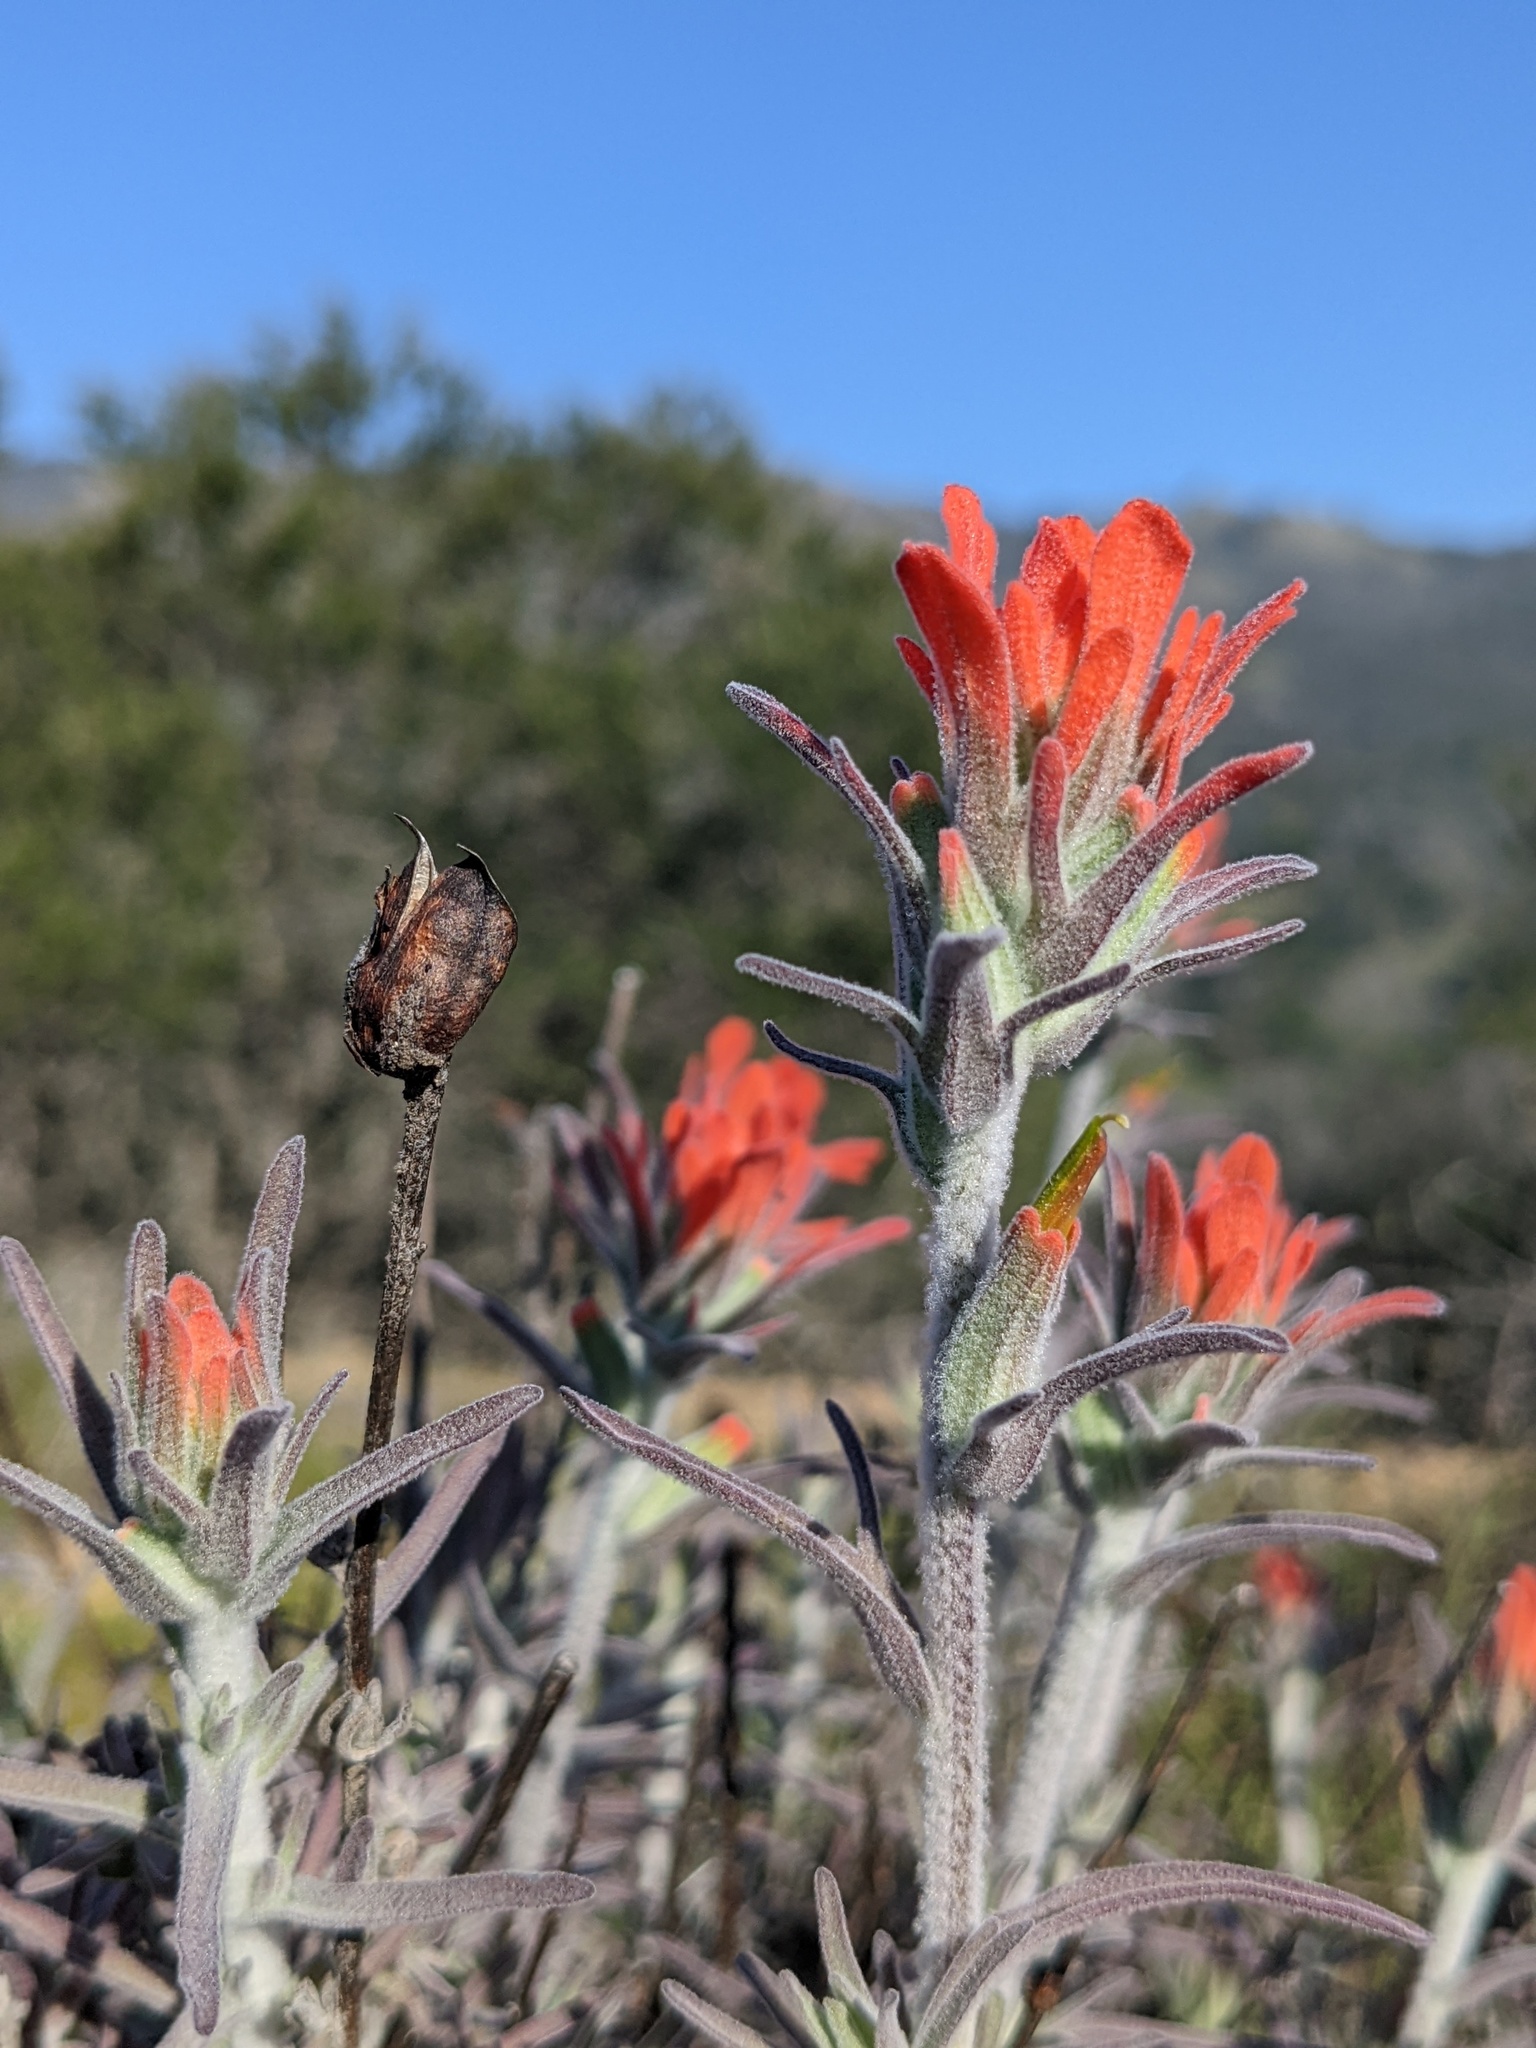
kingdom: Plantae
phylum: Tracheophyta
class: Magnoliopsida
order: Lamiales
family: Orobanchaceae
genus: Castilleja
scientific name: Castilleja foliolosa
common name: Woolly indian paintbrush
